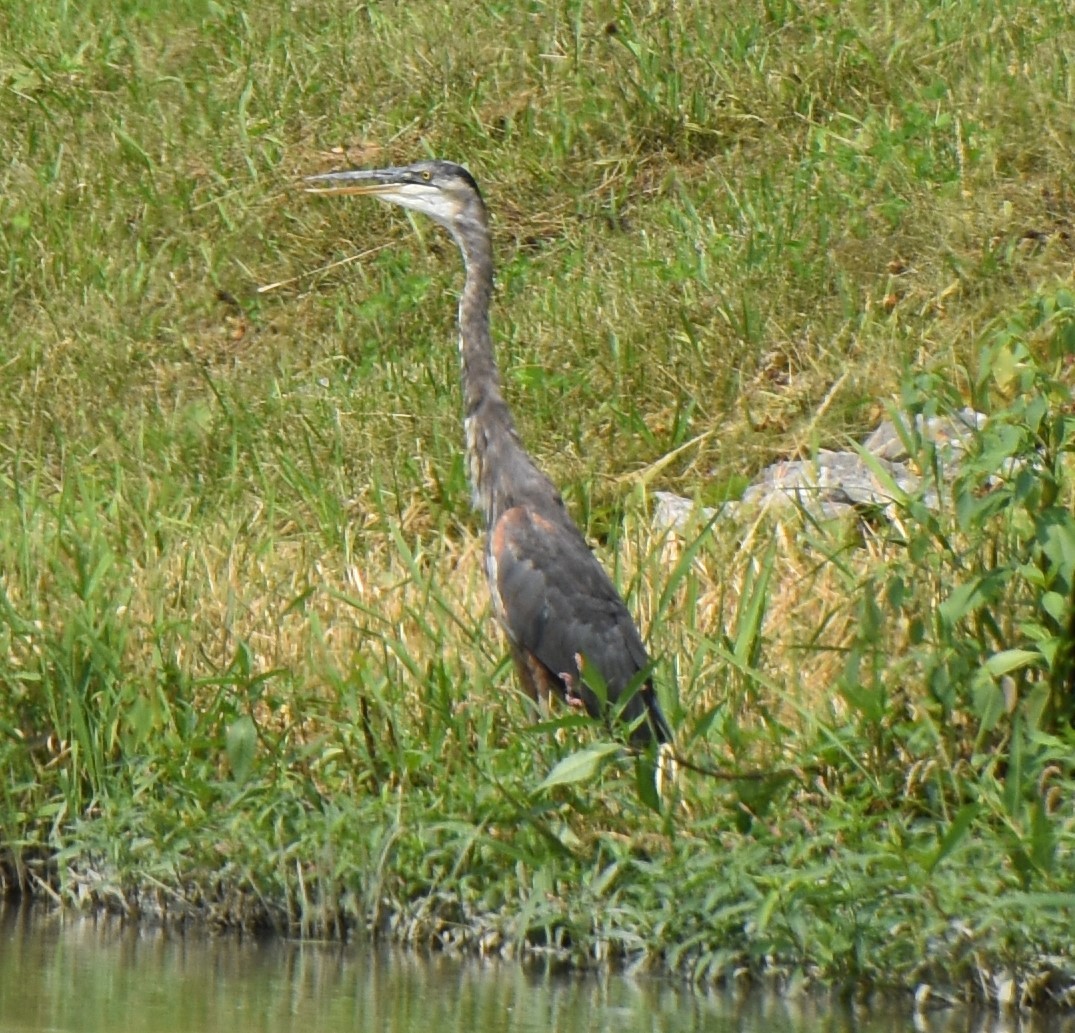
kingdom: Animalia
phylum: Chordata
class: Aves
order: Pelecaniformes
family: Ardeidae
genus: Ardea
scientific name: Ardea herodias
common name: Great blue heron
